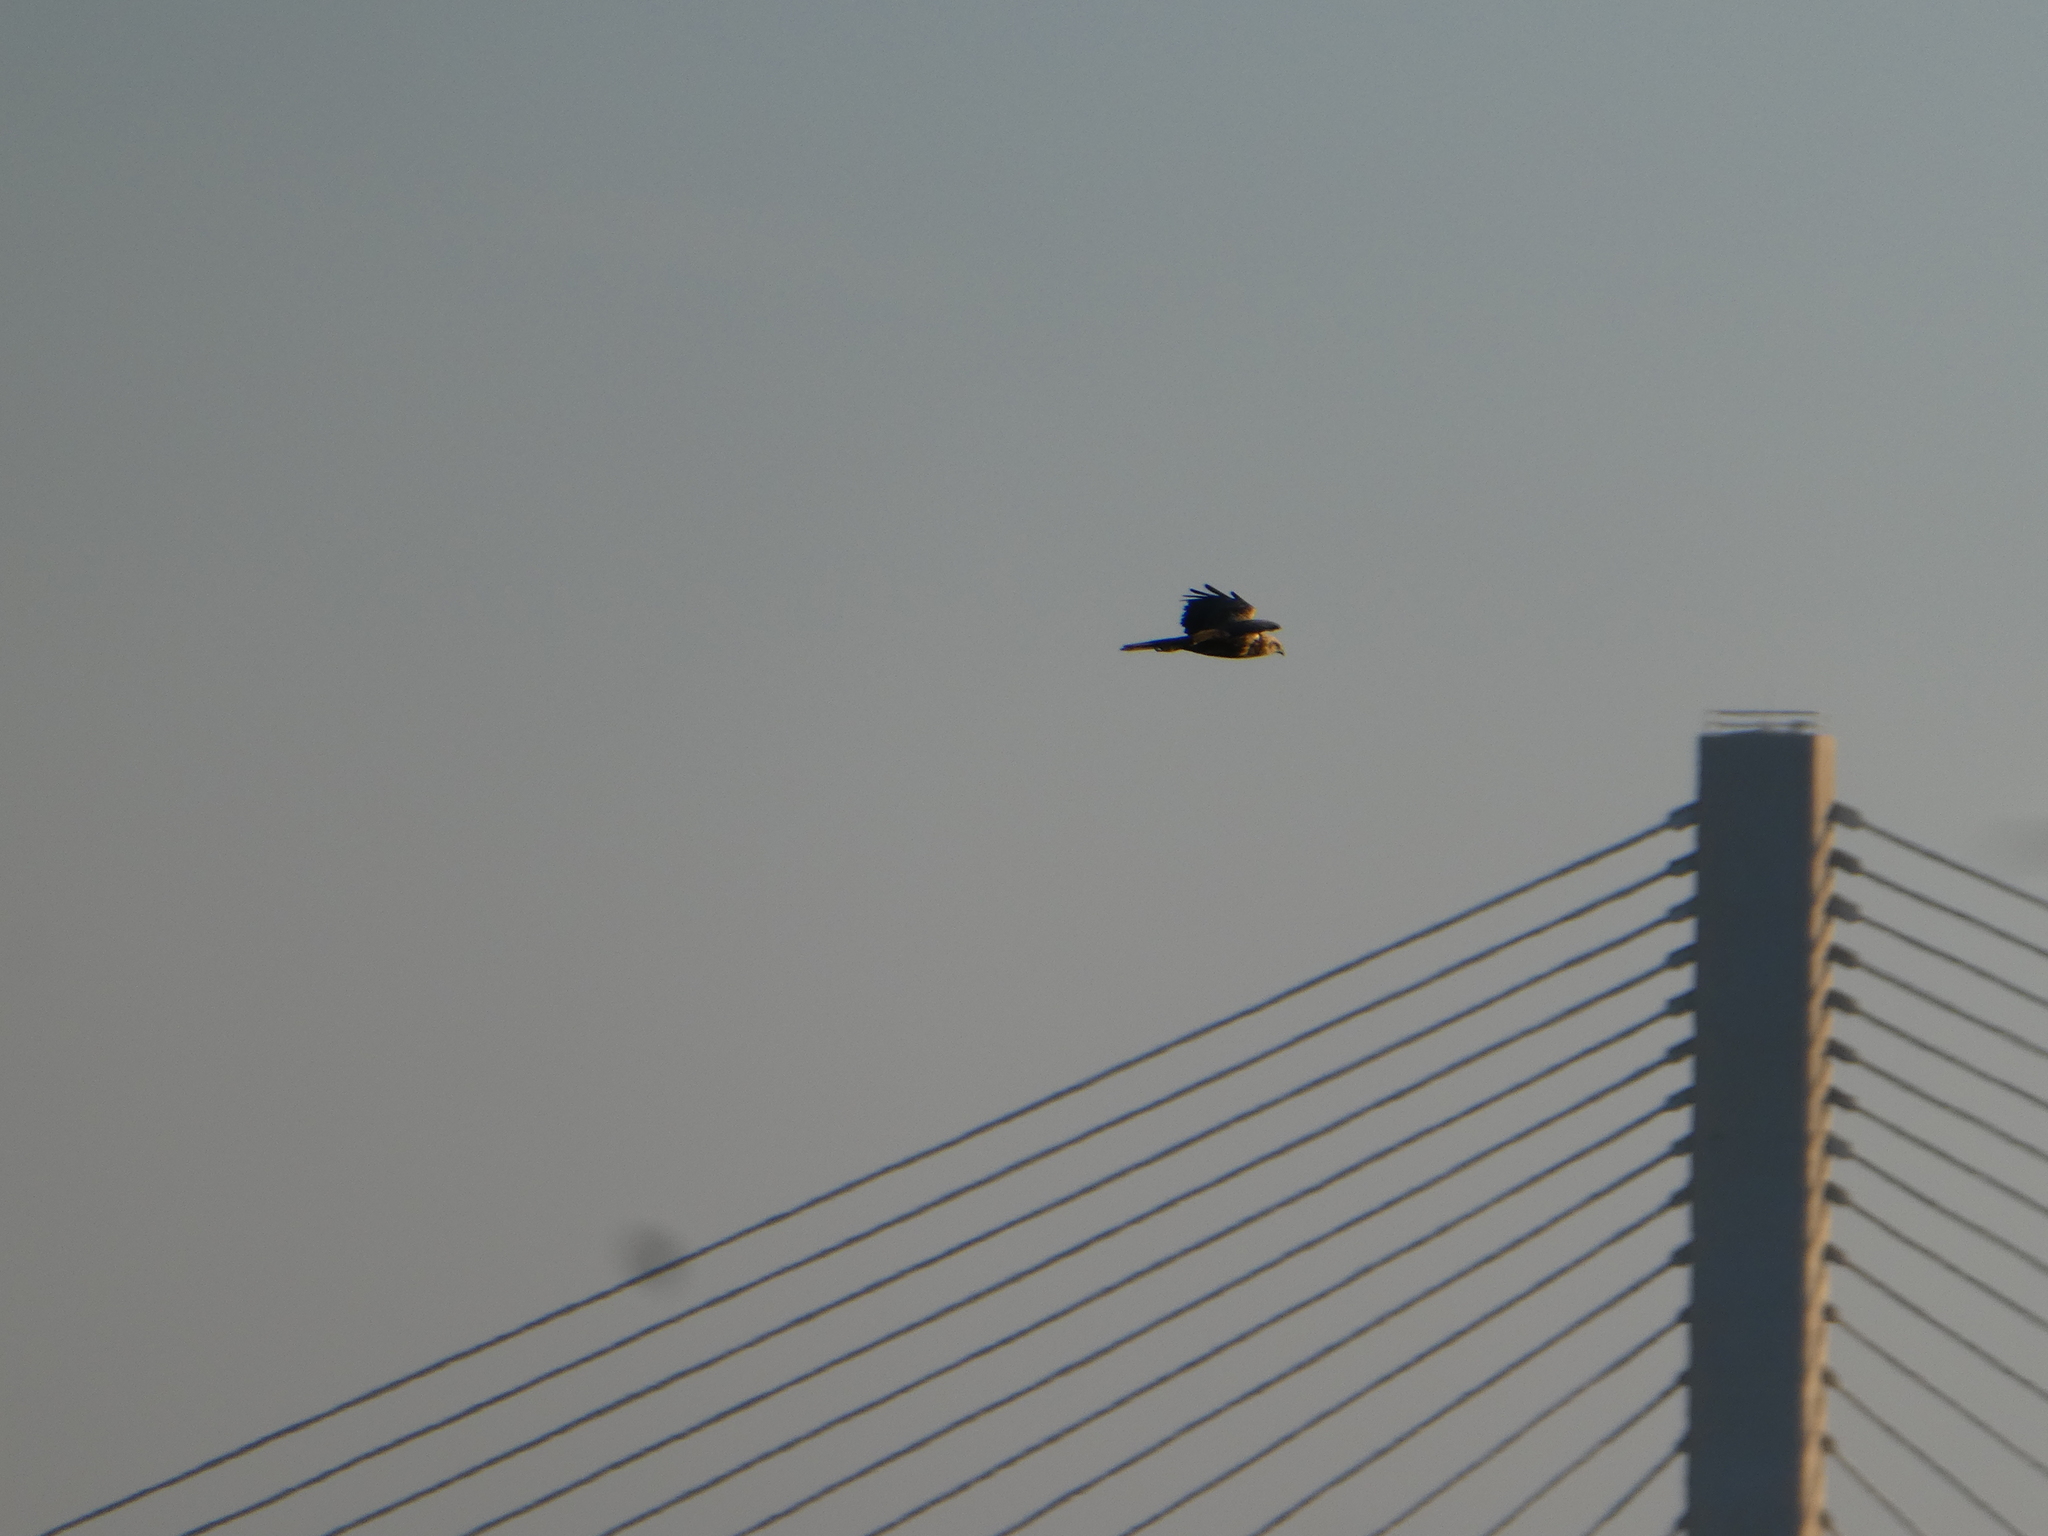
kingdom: Animalia
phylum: Chordata
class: Aves
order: Accipitriformes
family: Accipitridae
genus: Circus
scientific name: Circus aeruginosus
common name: Western marsh harrier
